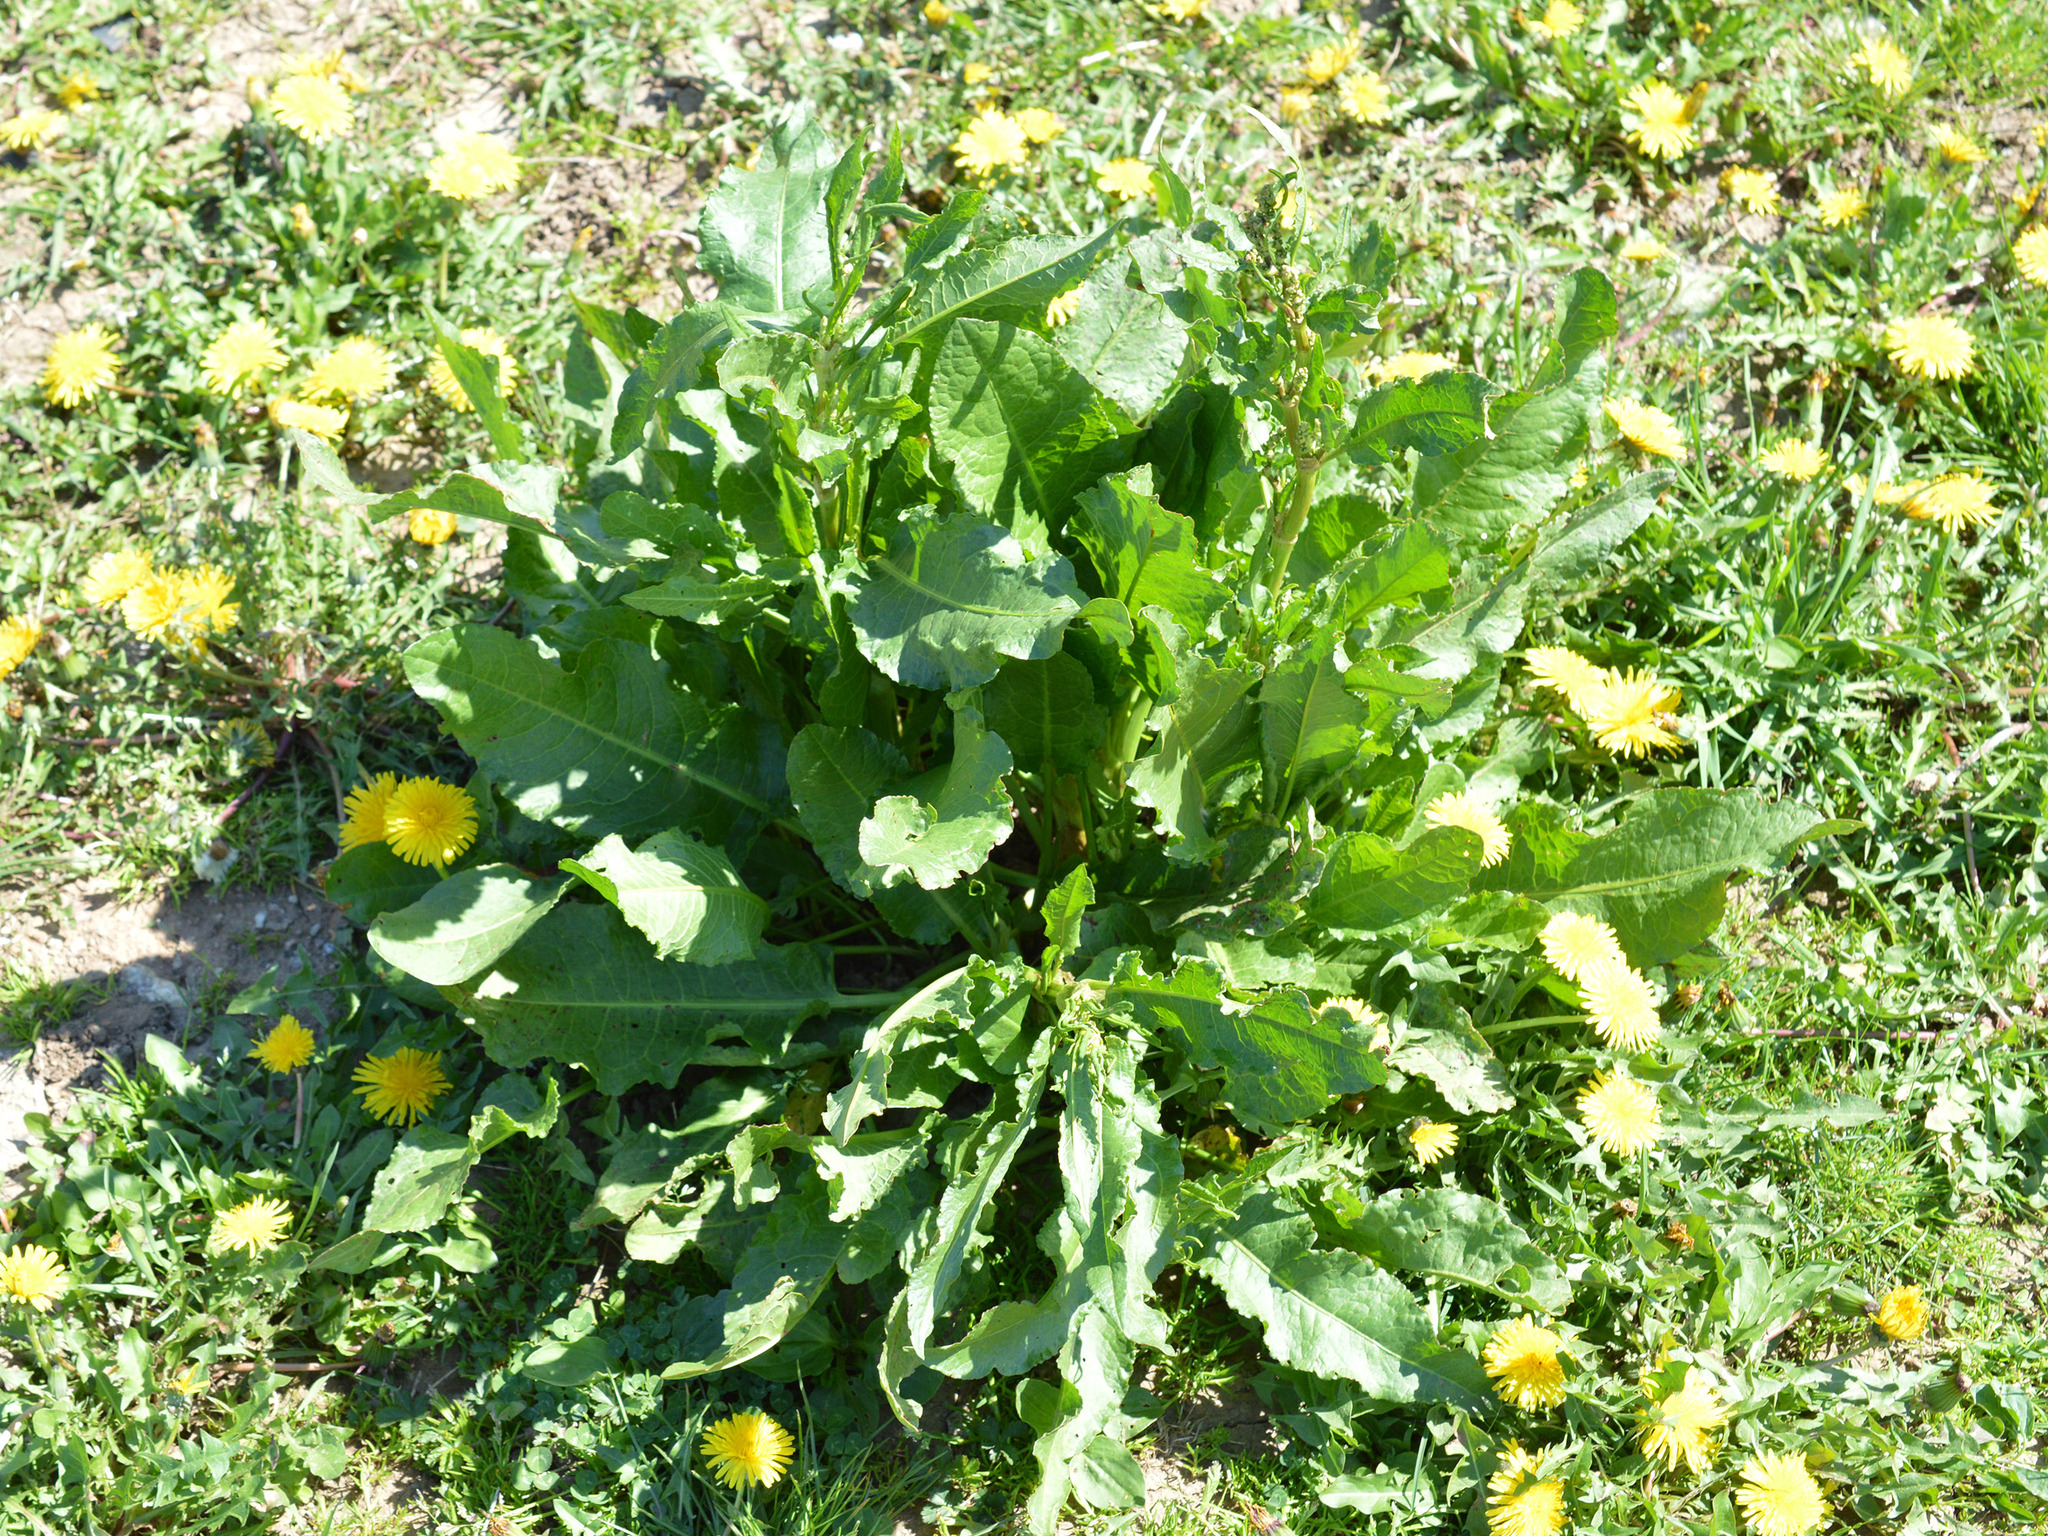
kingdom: Animalia
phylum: Arthropoda
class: Insecta
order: Coleoptera
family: Apionidae
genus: Apion
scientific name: Apion frumentarium
